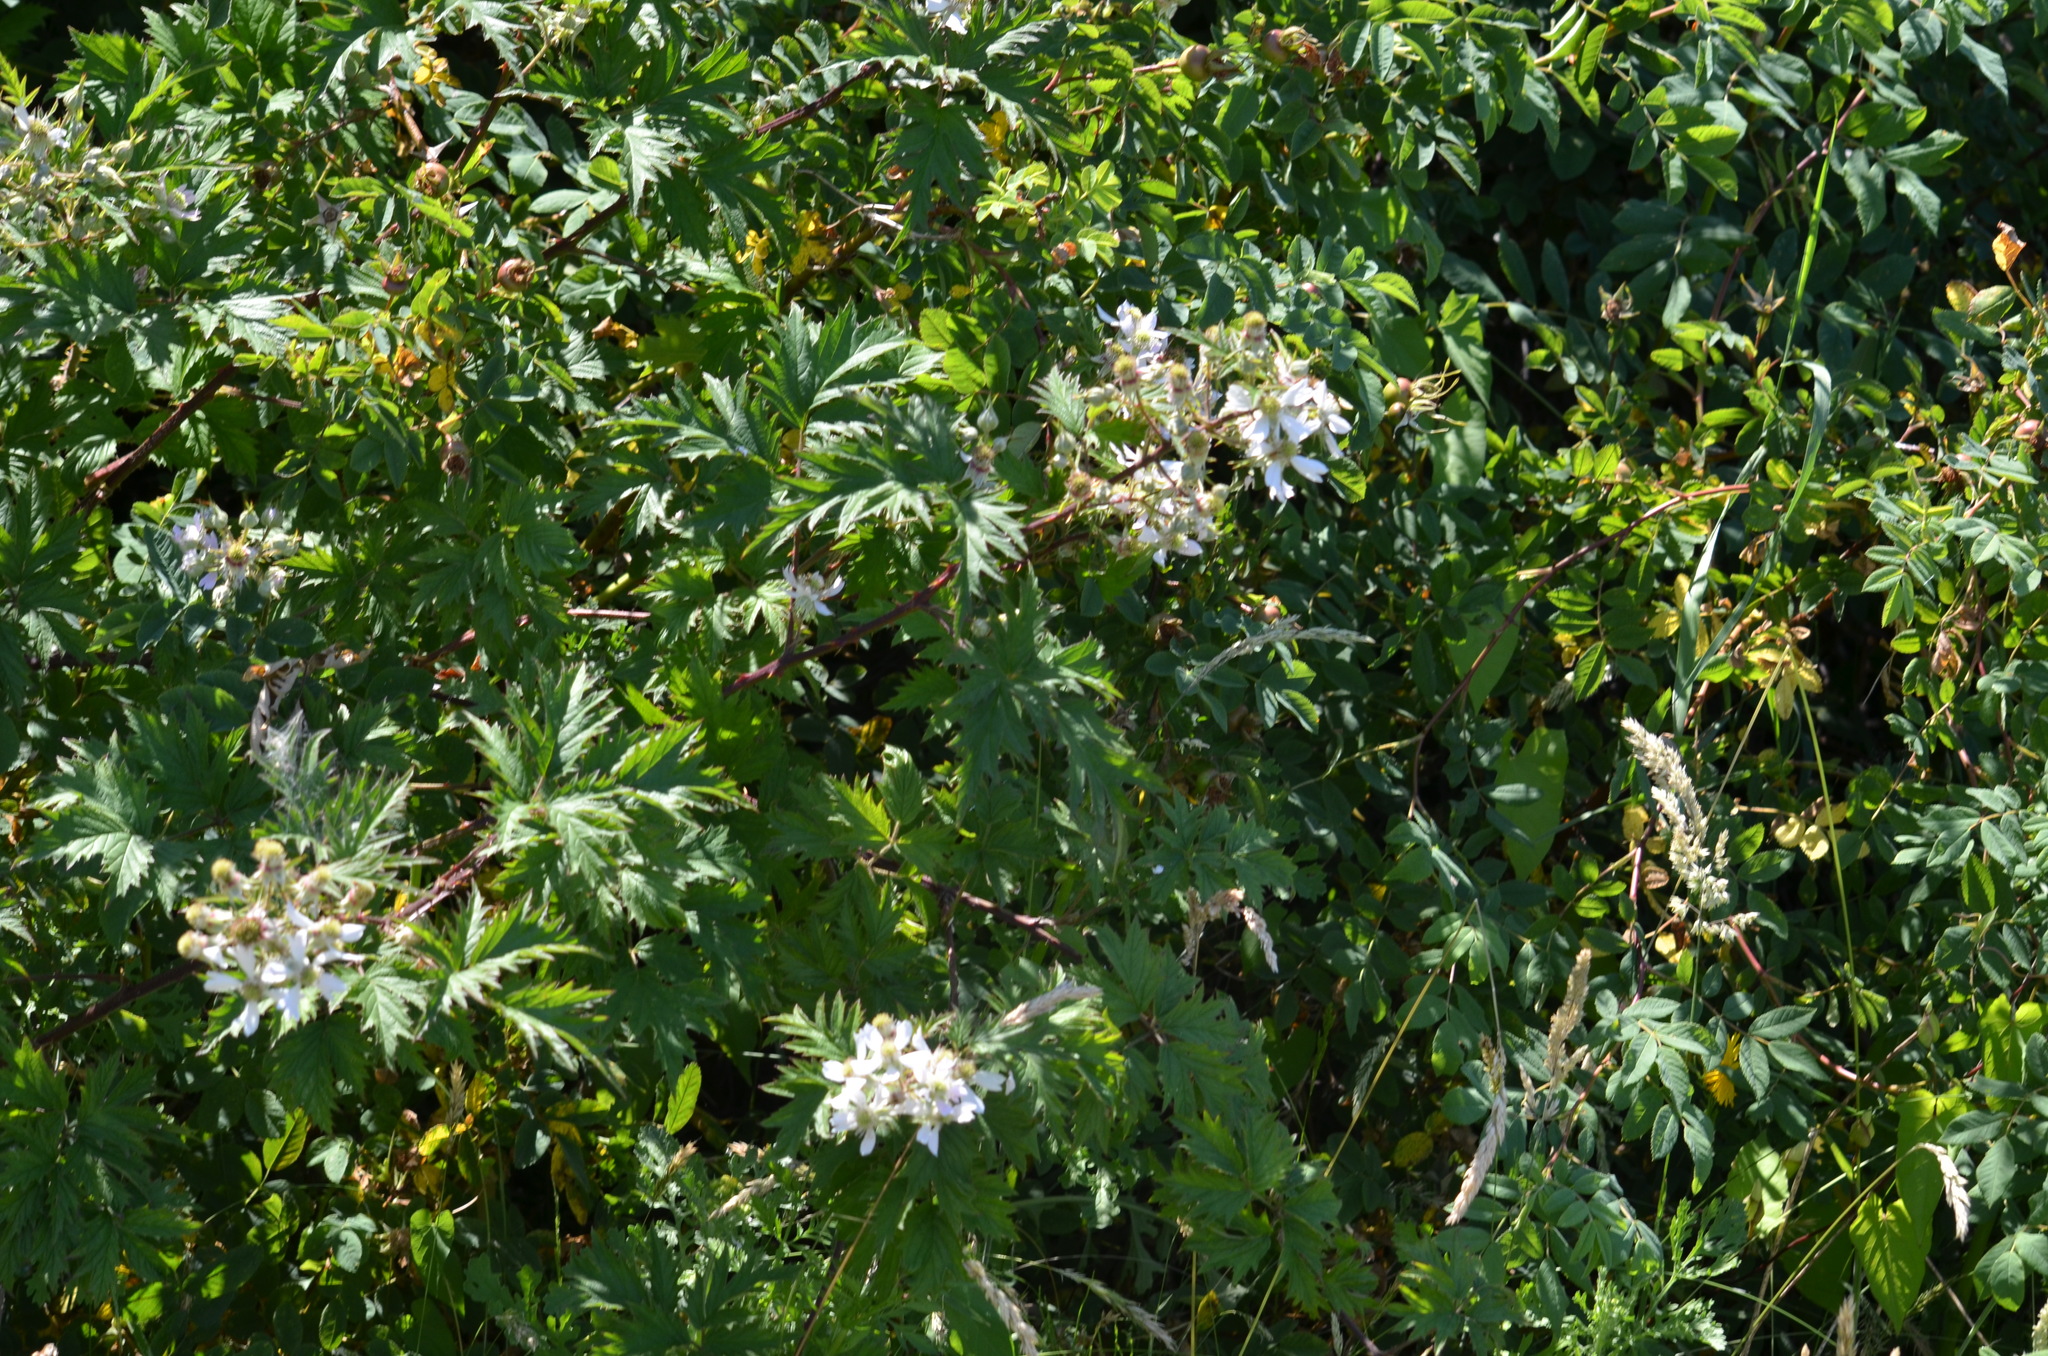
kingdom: Plantae
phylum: Tracheophyta
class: Magnoliopsida
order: Rosales
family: Rosaceae
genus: Rubus
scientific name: Rubus laciniatus
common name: Evergreen blackberry
